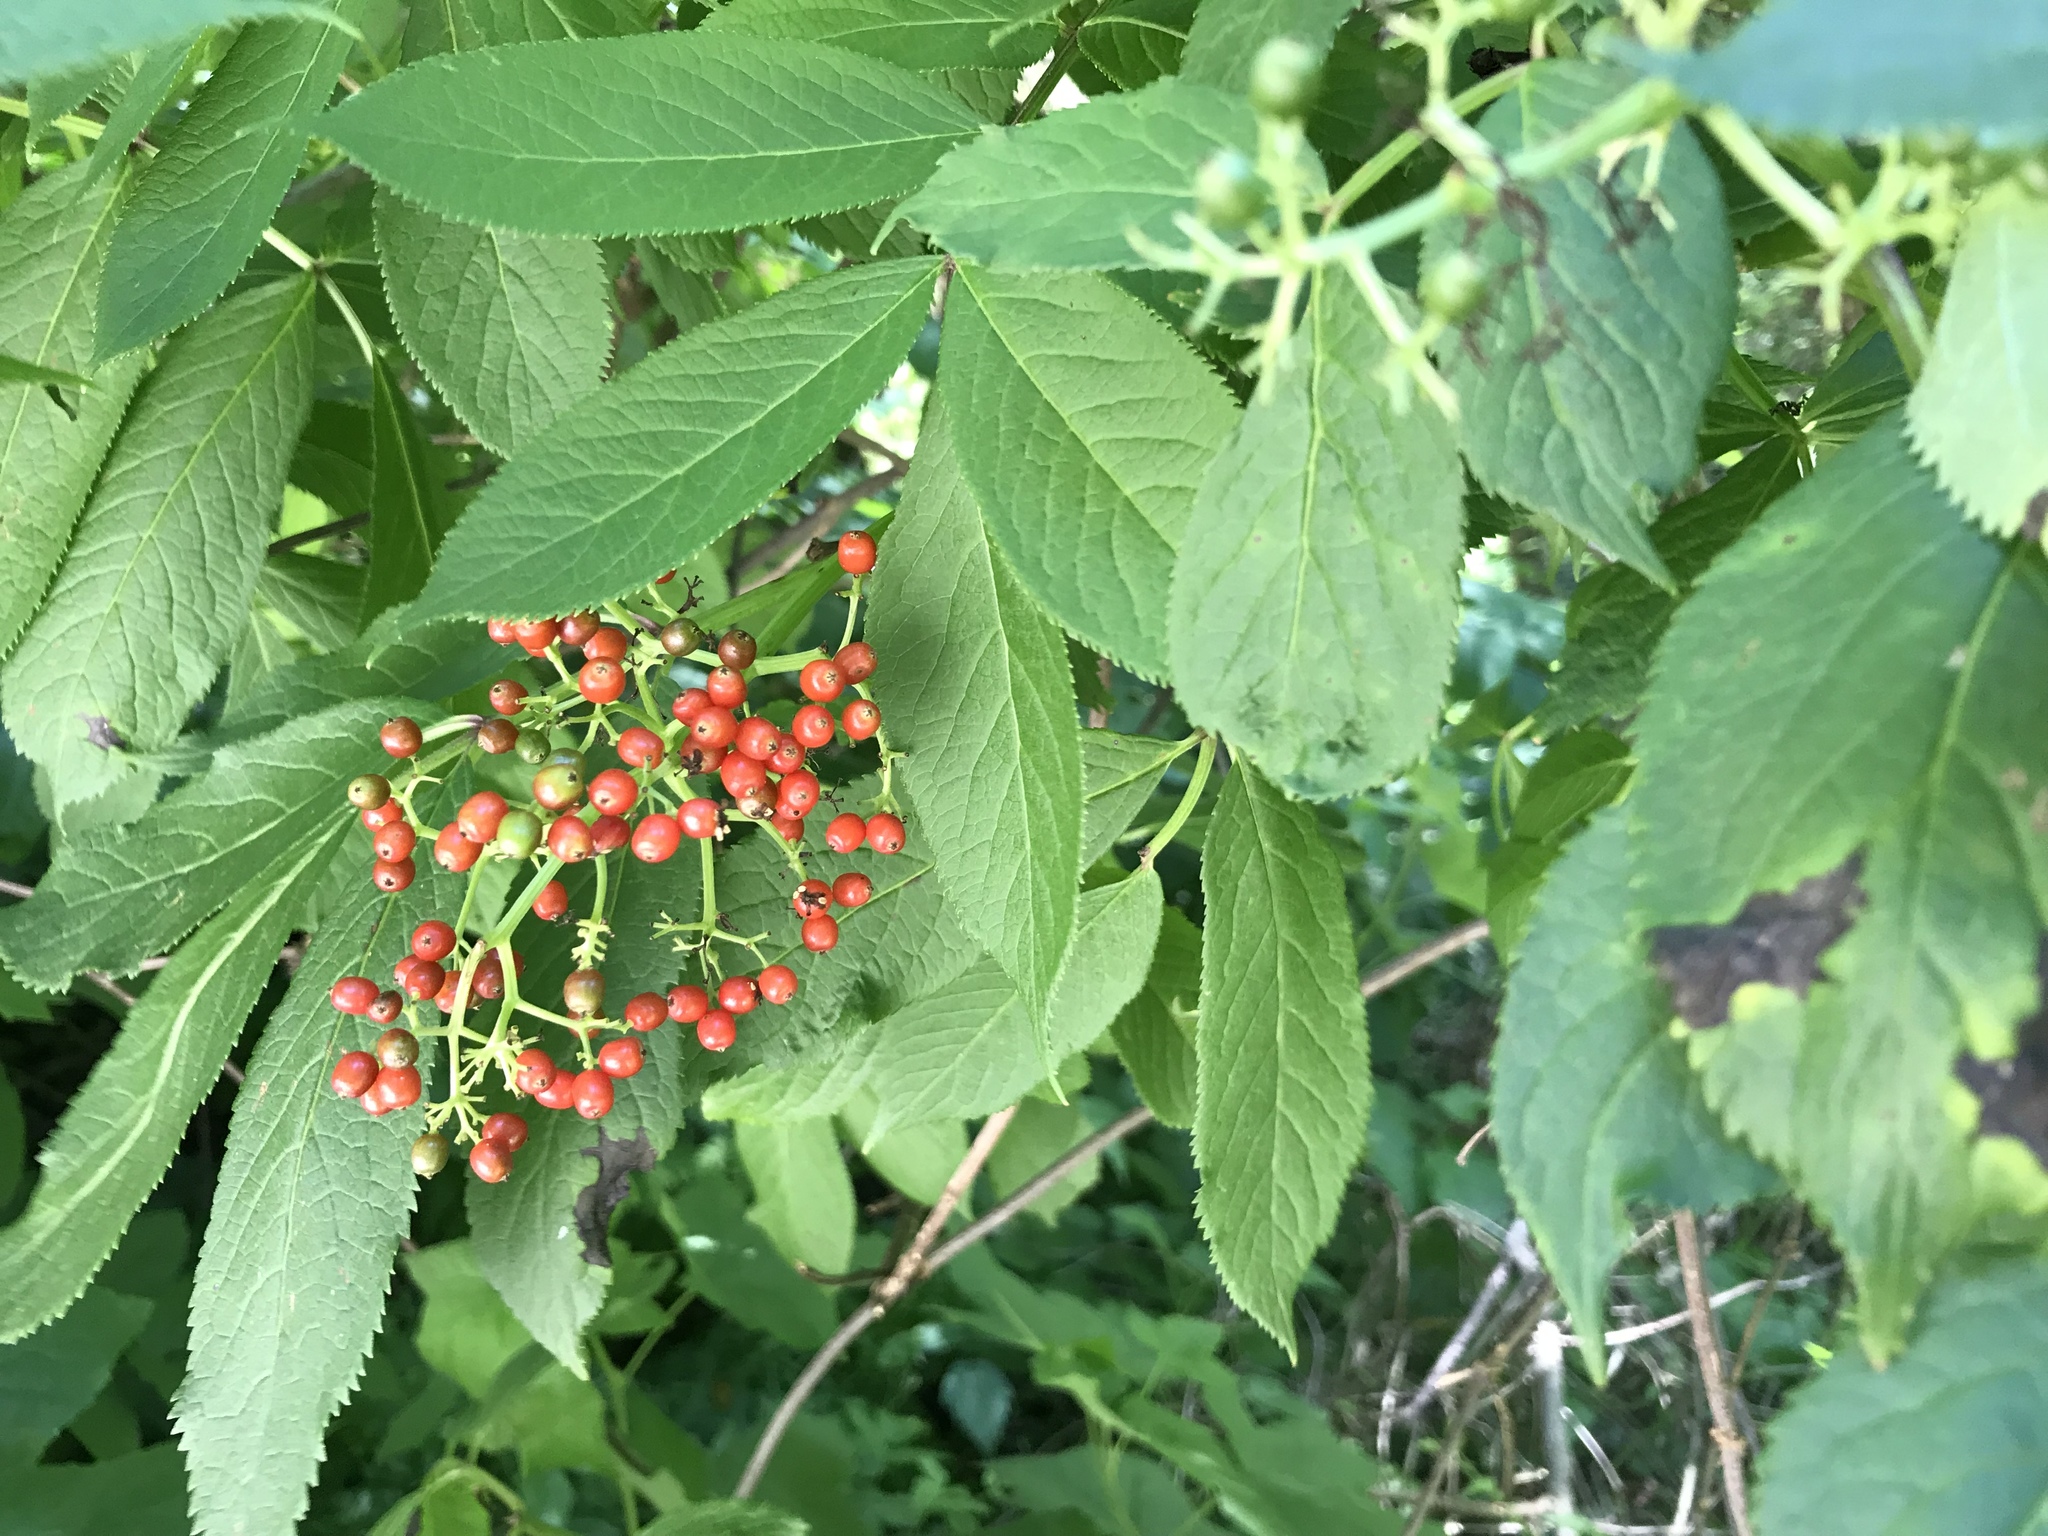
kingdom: Plantae
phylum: Tracheophyta
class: Magnoliopsida
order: Dipsacales
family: Viburnaceae
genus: Sambucus
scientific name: Sambucus racemosa
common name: Red-berried elder
